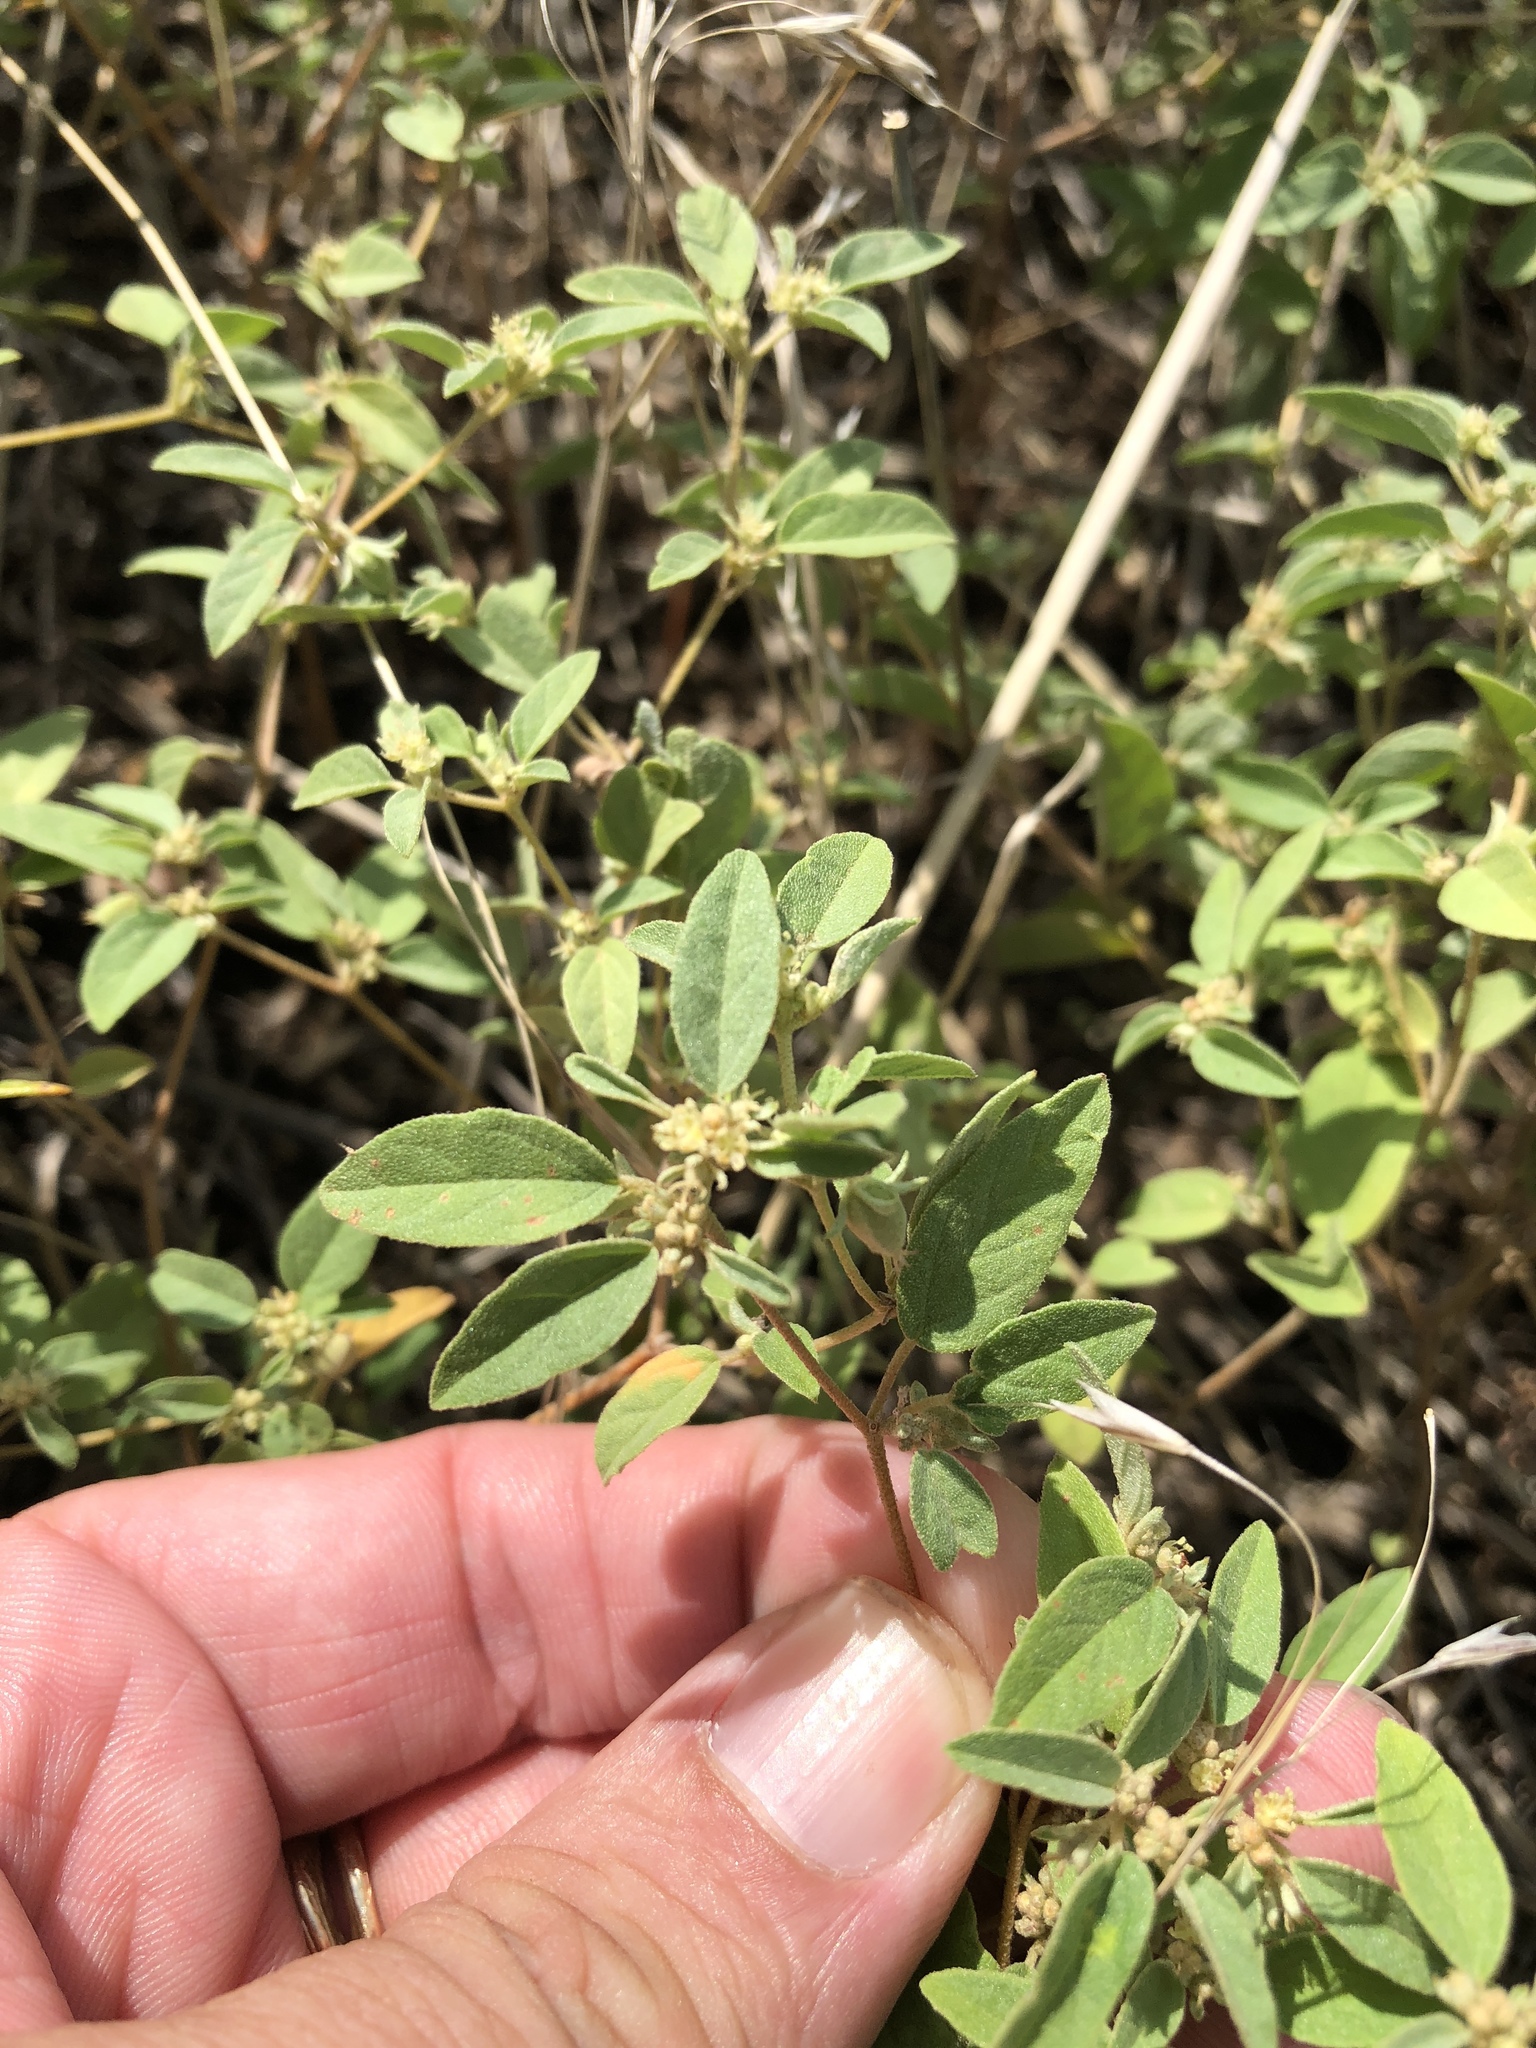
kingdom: Plantae
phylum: Tracheophyta
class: Magnoliopsida
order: Malpighiales
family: Euphorbiaceae
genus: Croton
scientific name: Croton monanthogynus
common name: One-seed croton
